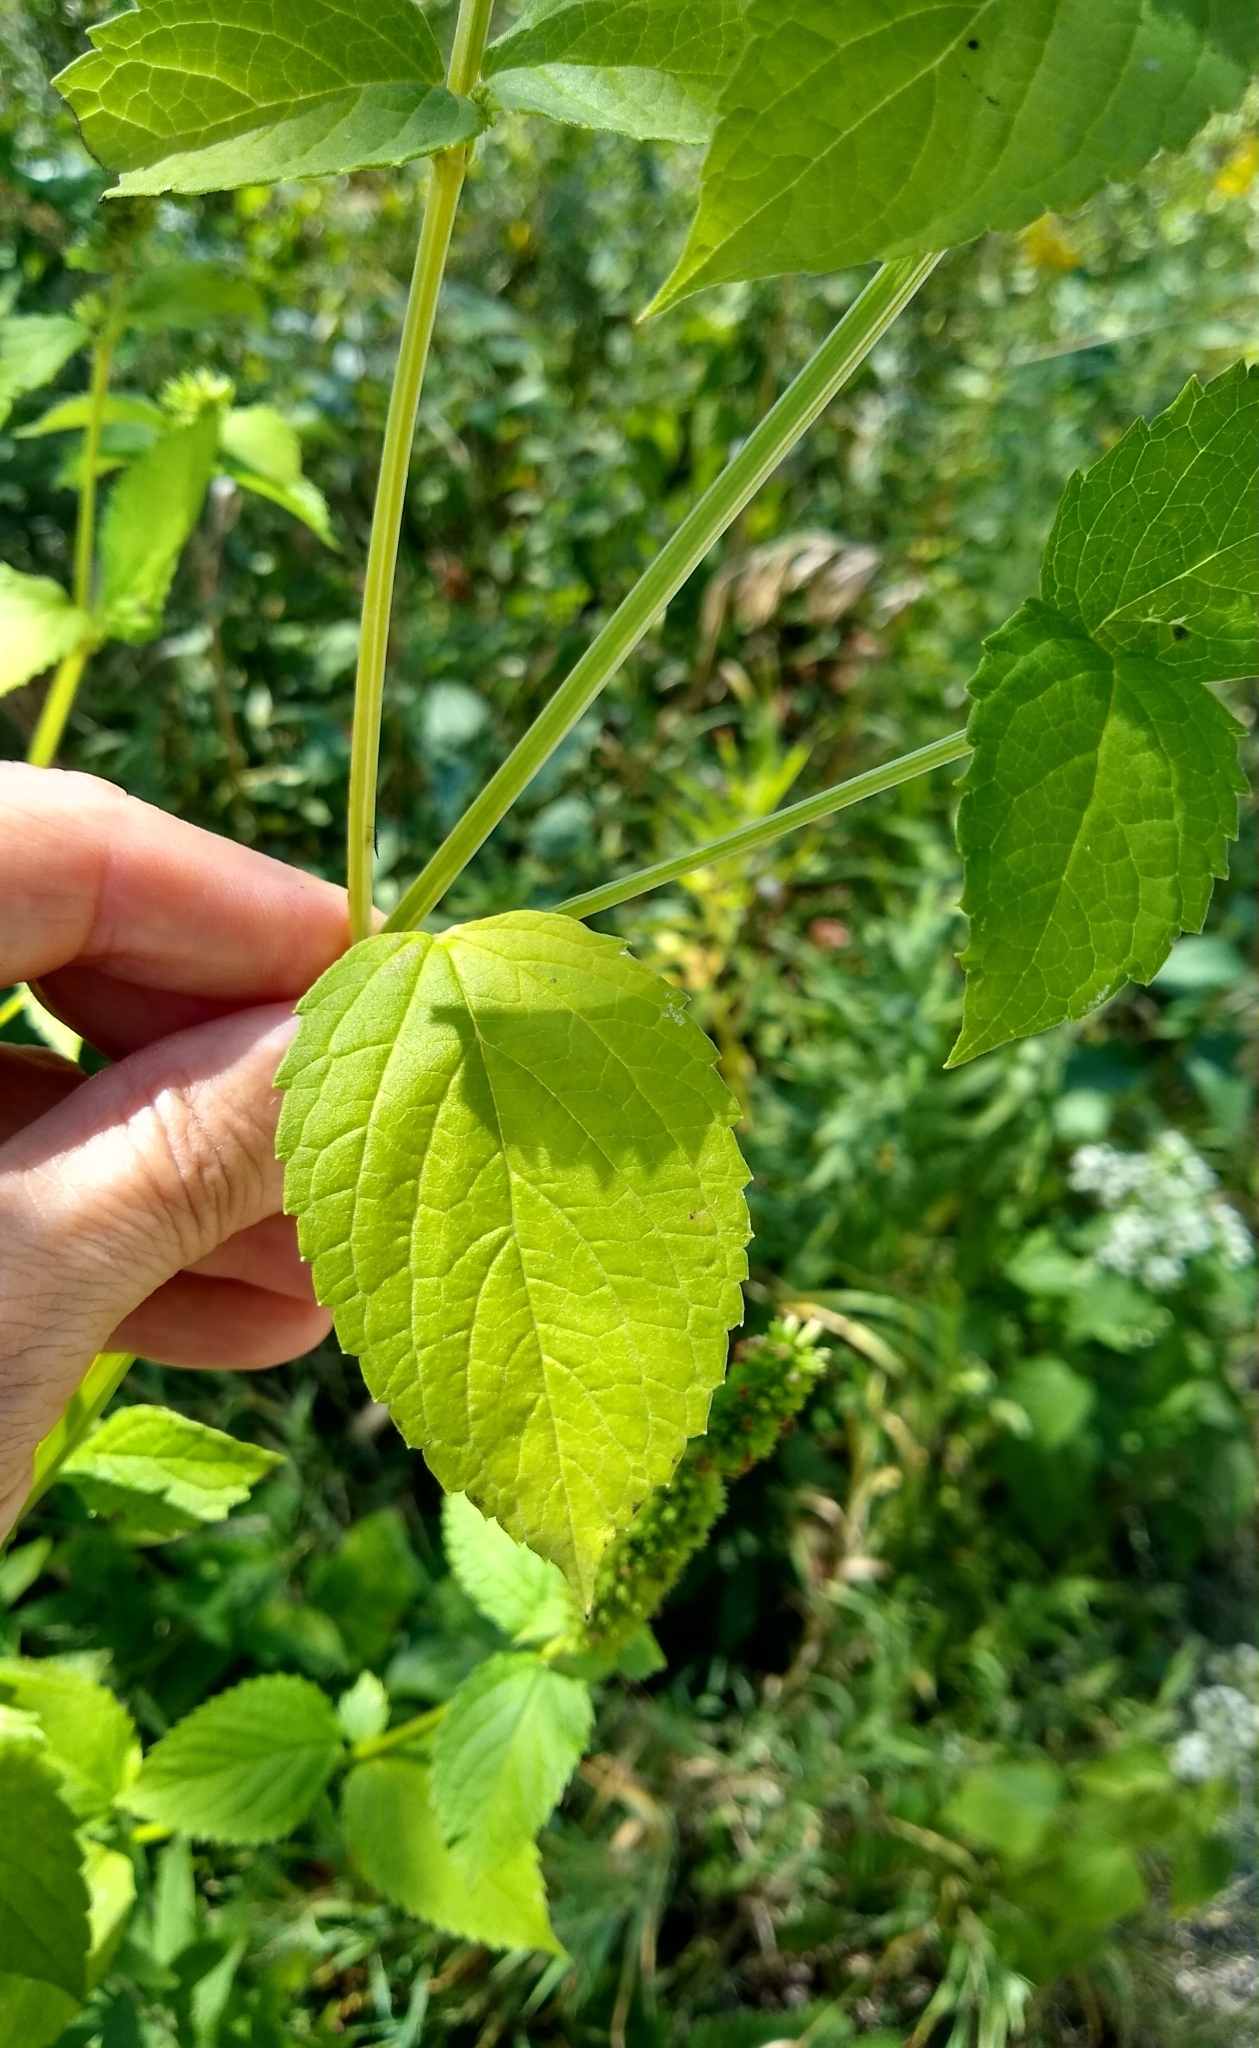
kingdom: Plantae
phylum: Tracheophyta
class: Magnoliopsida
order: Lamiales
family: Lamiaceae
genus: Agastache
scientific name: Agastache nepetoides
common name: Catnip giant hyssop
